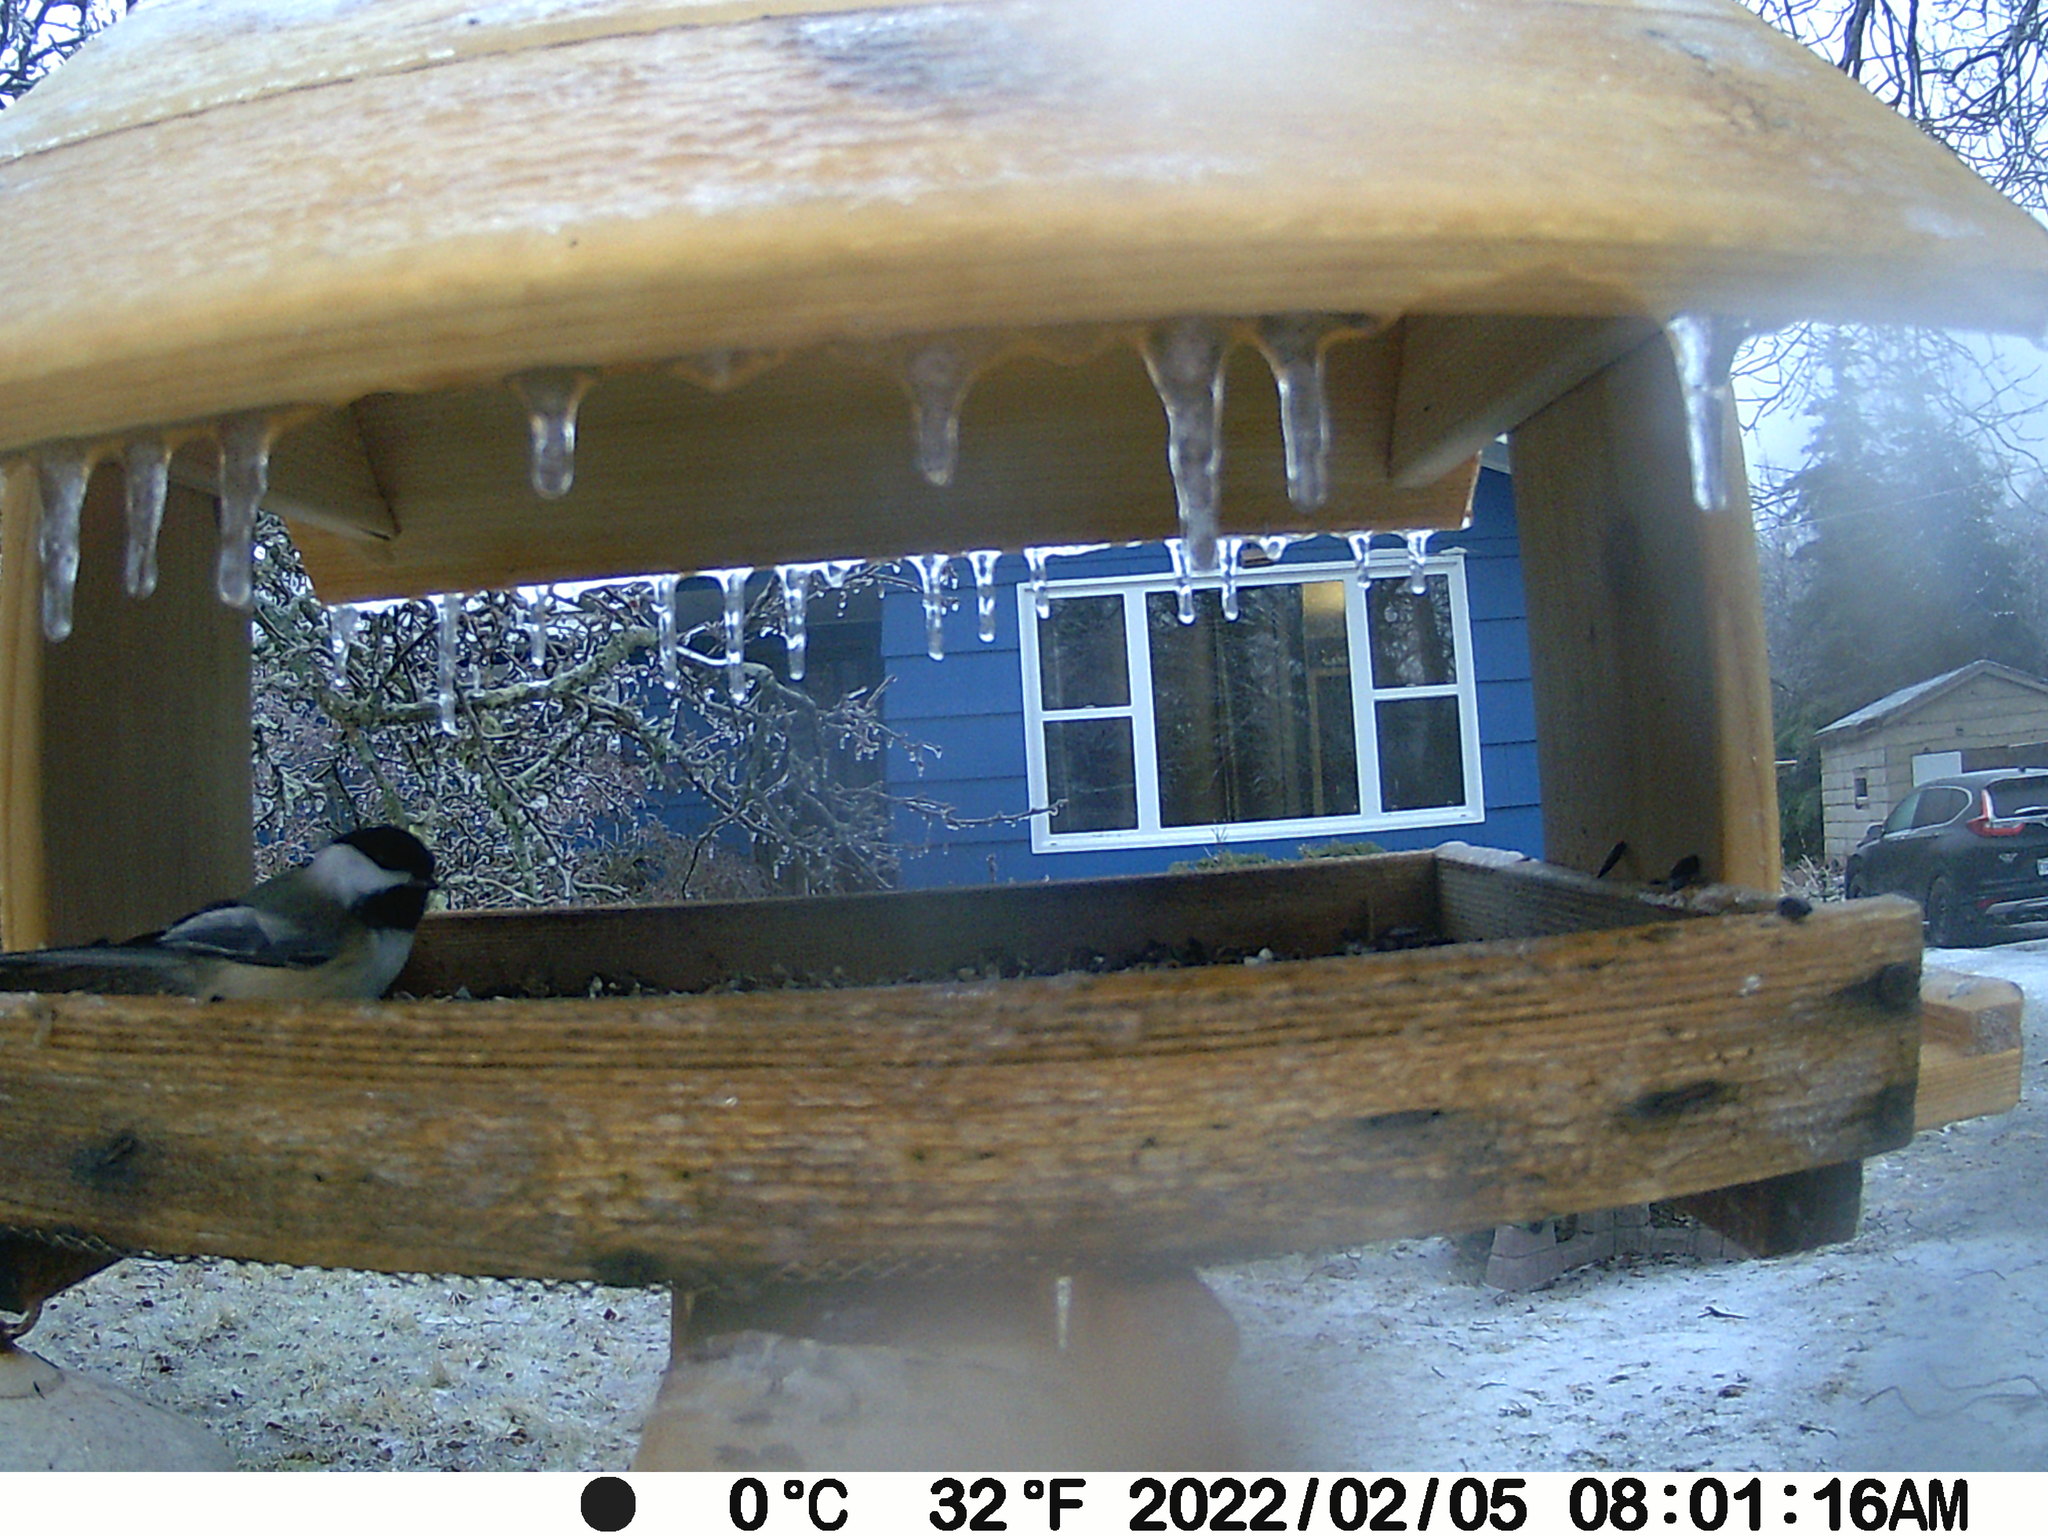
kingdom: Animalia
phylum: Chordata
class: Aves
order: Passeriformes
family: Paridae
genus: Poecile
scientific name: Poecile atricapillus
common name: Black-capped chickadee
